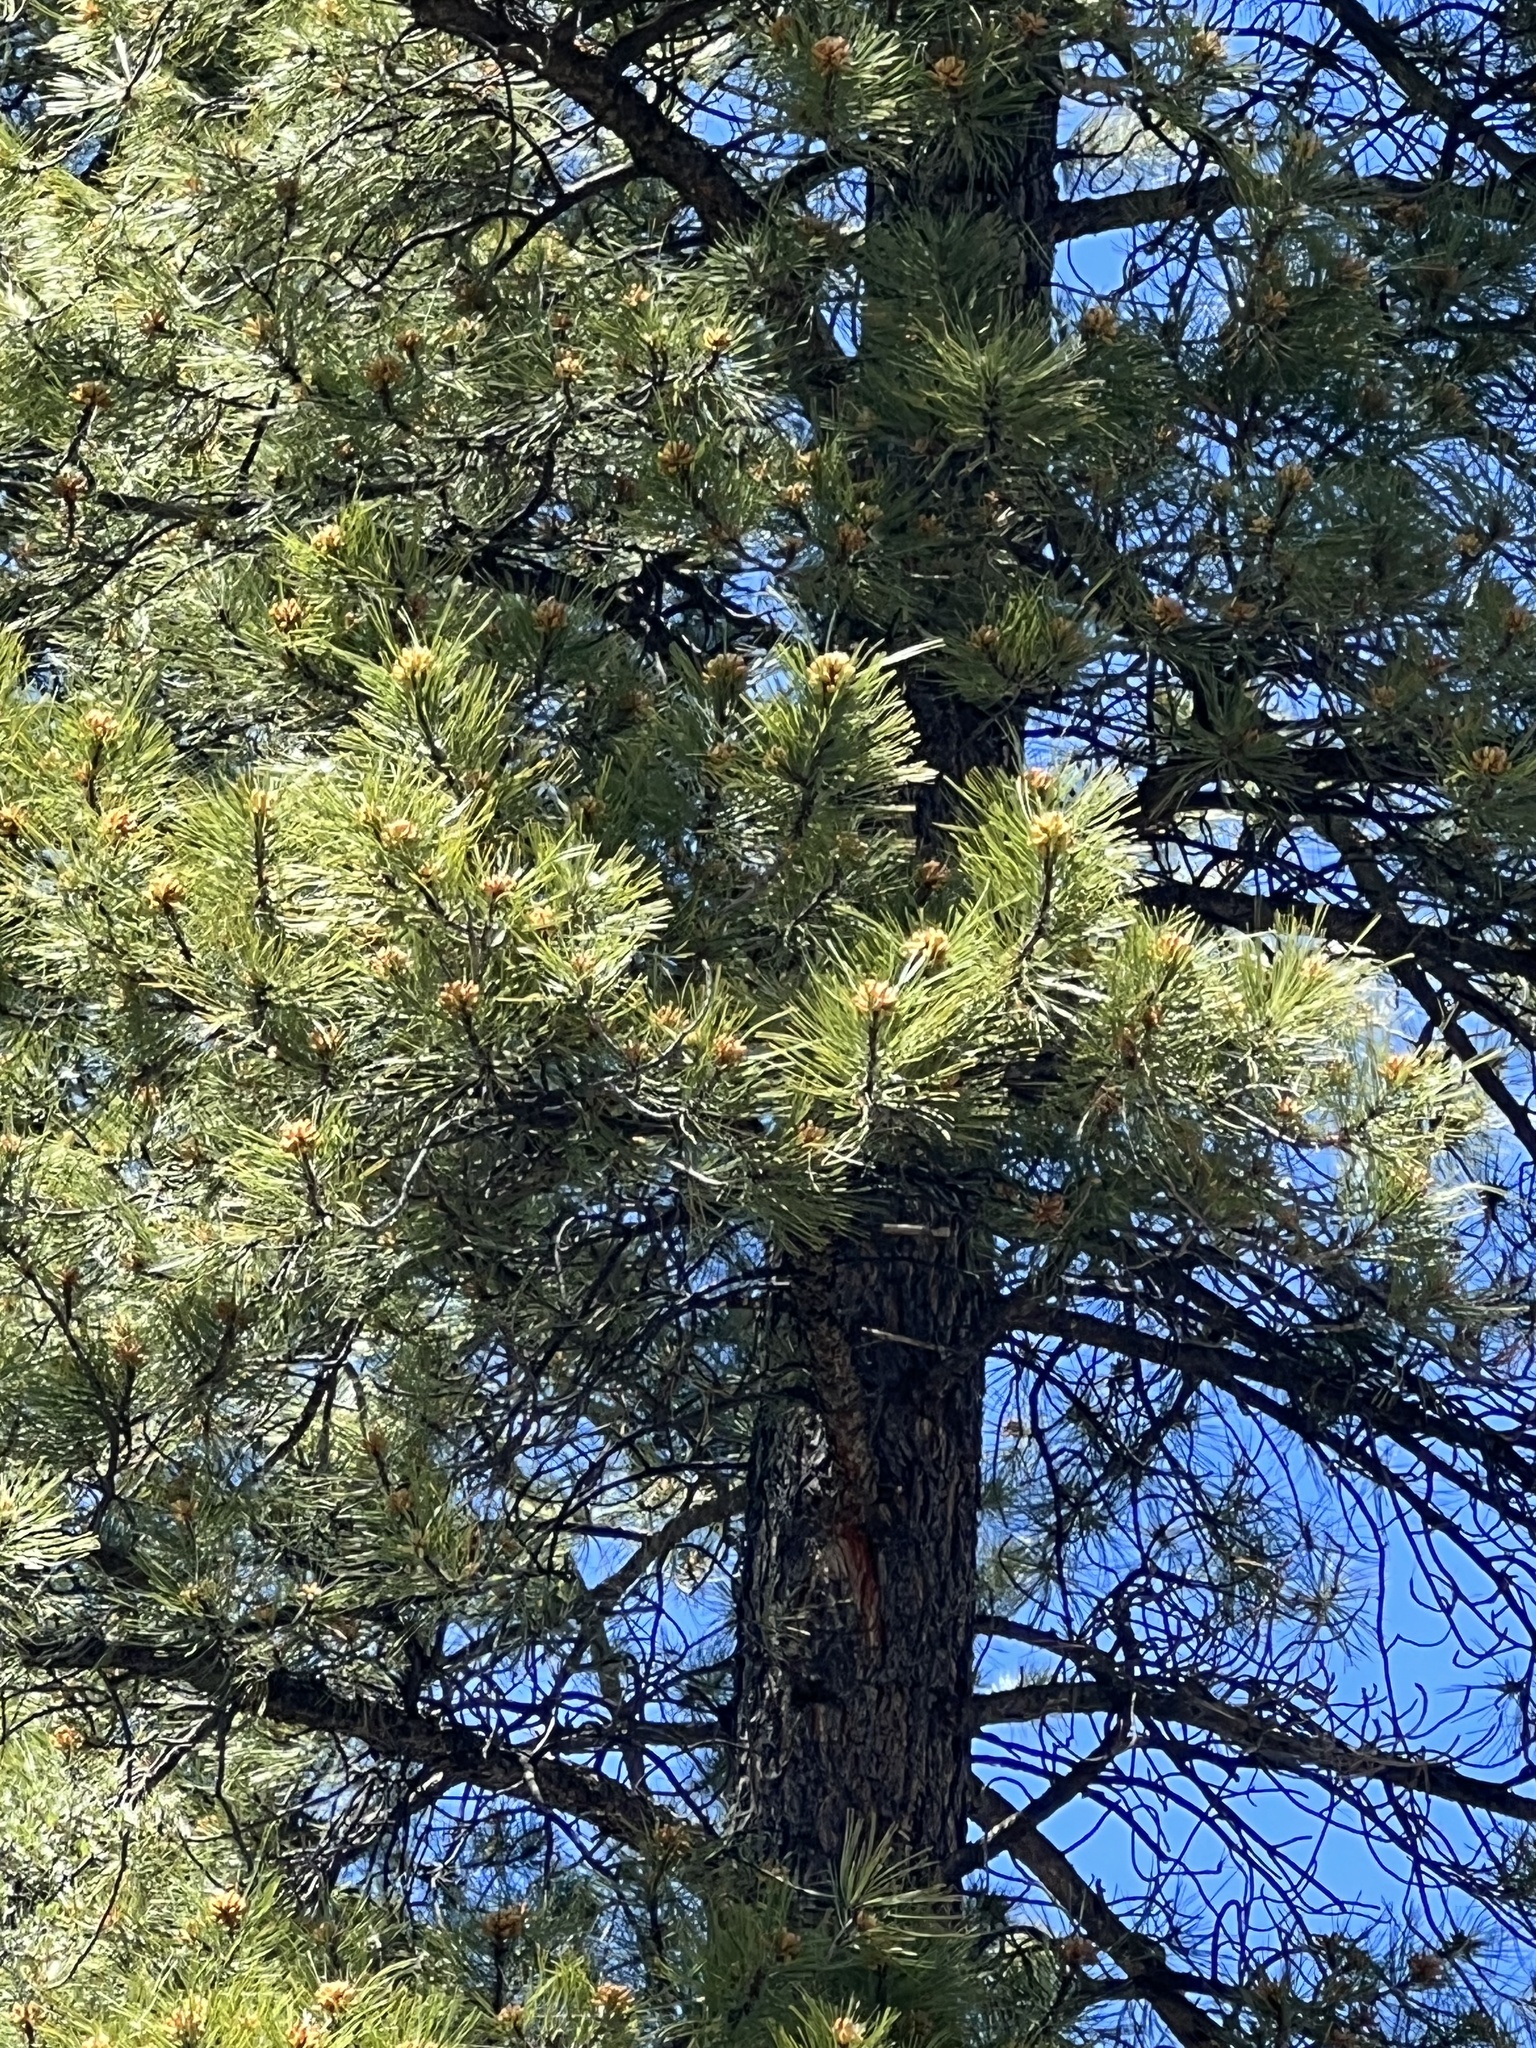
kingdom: Plantae
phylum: Tracheophyta
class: Pinopsida
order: Pinales
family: Pinaceae
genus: Pinus
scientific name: Pinus ponderosa
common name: Western yellow-pine
